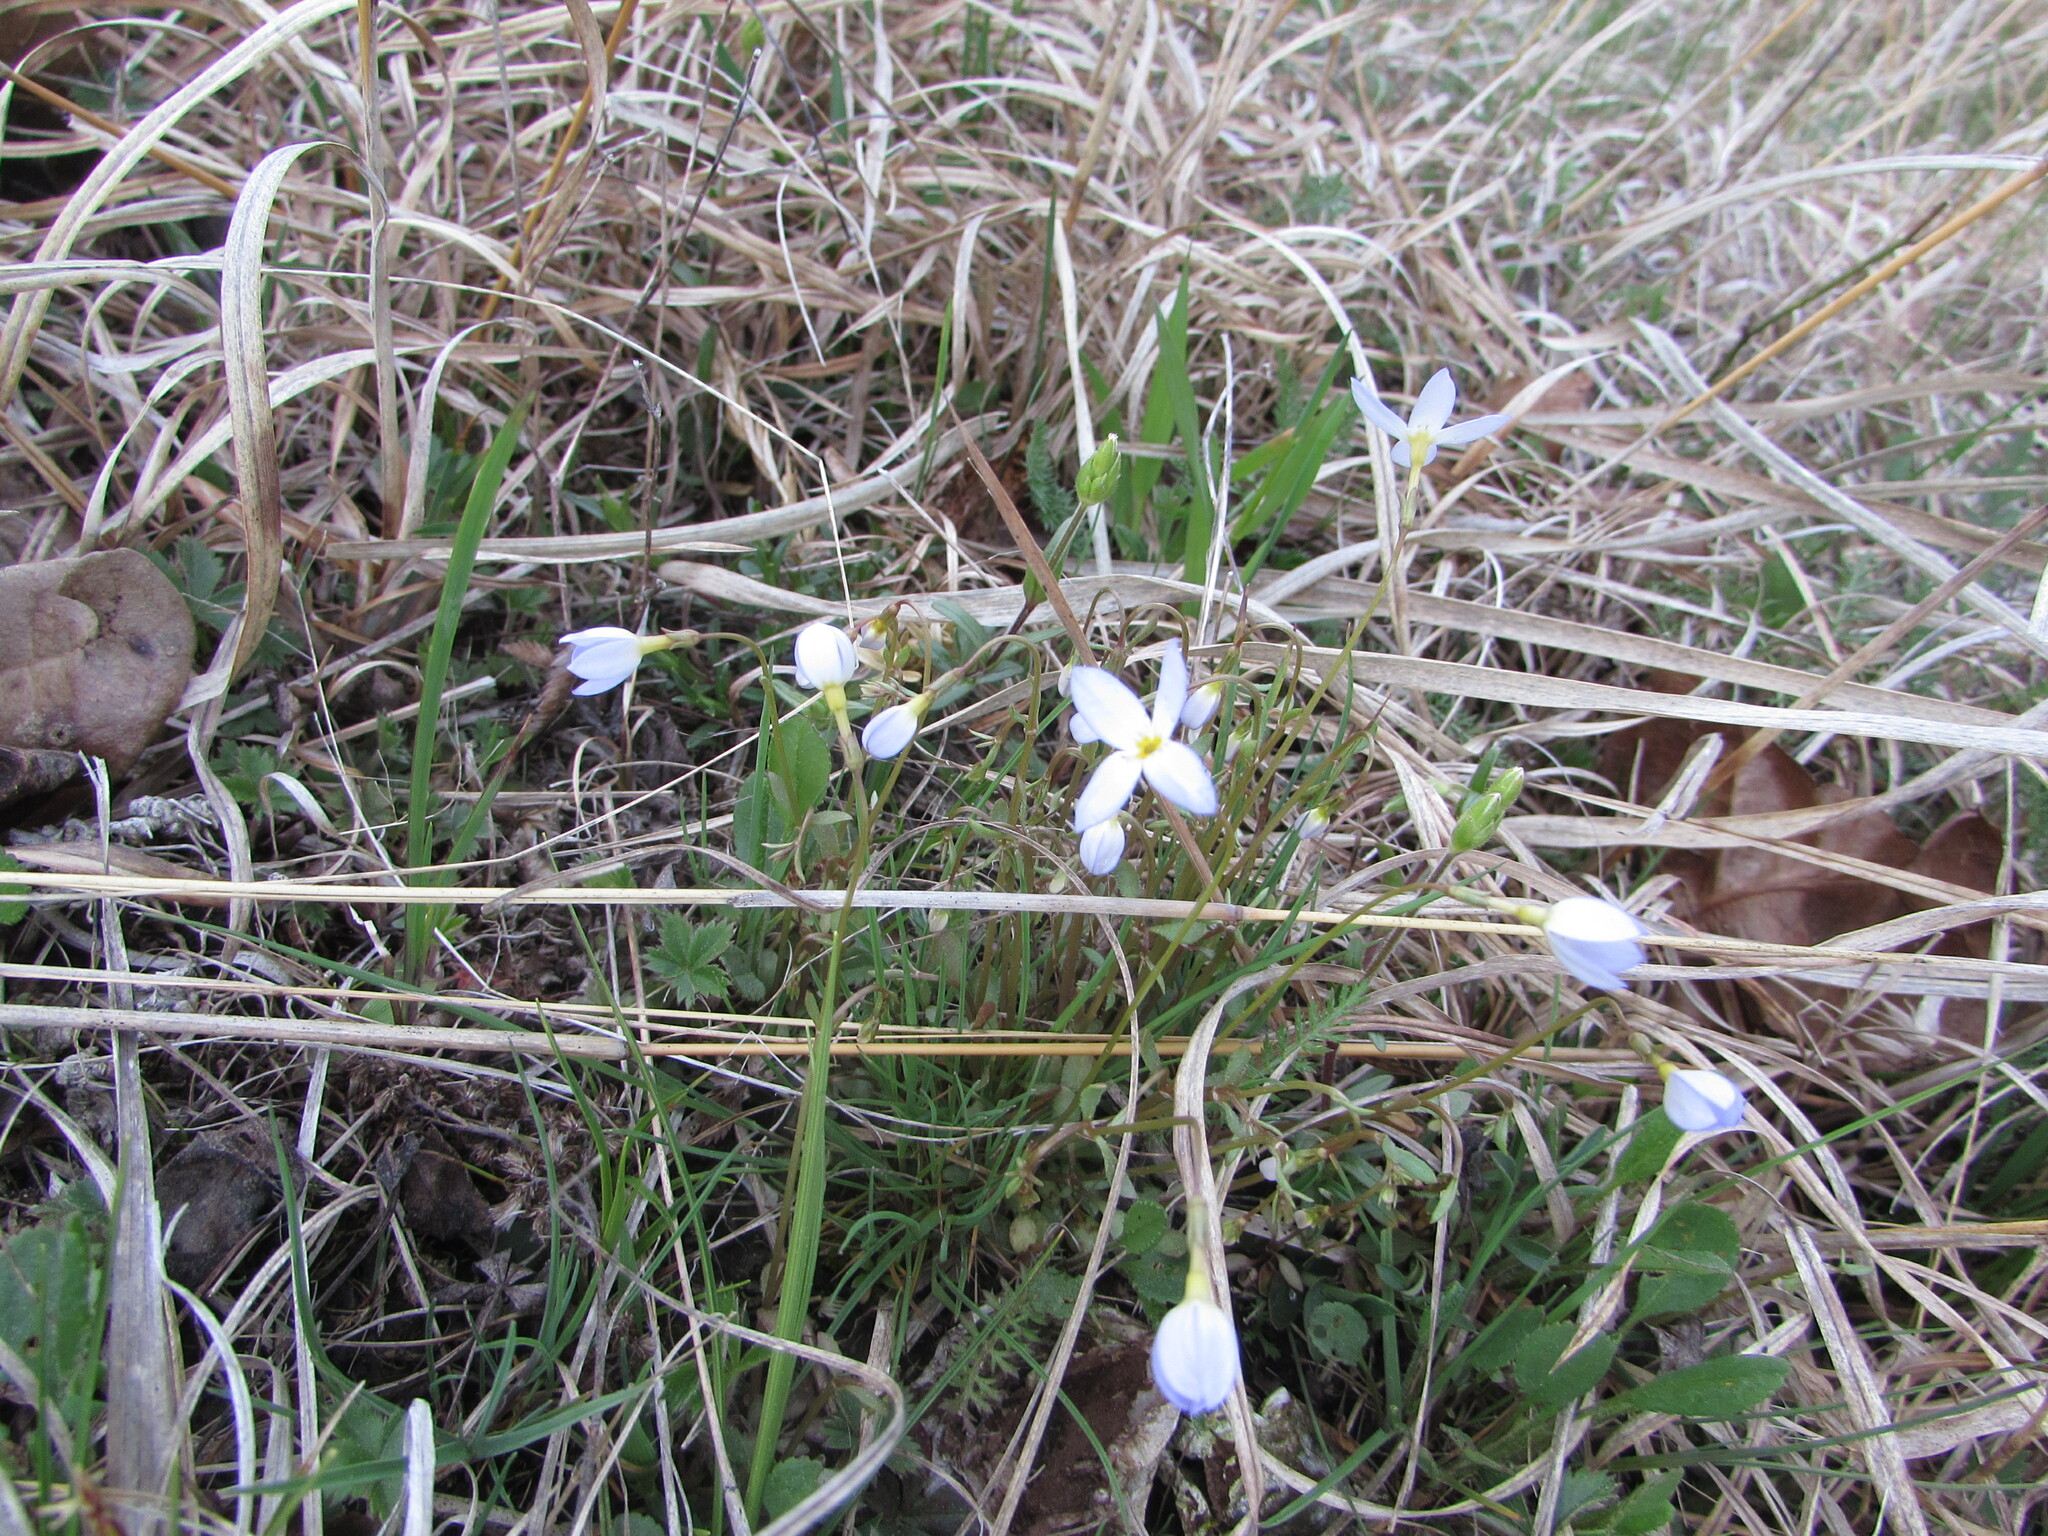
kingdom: Plantae
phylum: Tracheophyta
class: Magnoliopsida
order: Gentianales
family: Rubiaceae
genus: Houstonia
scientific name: Houstonia caerulea
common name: Bluets
